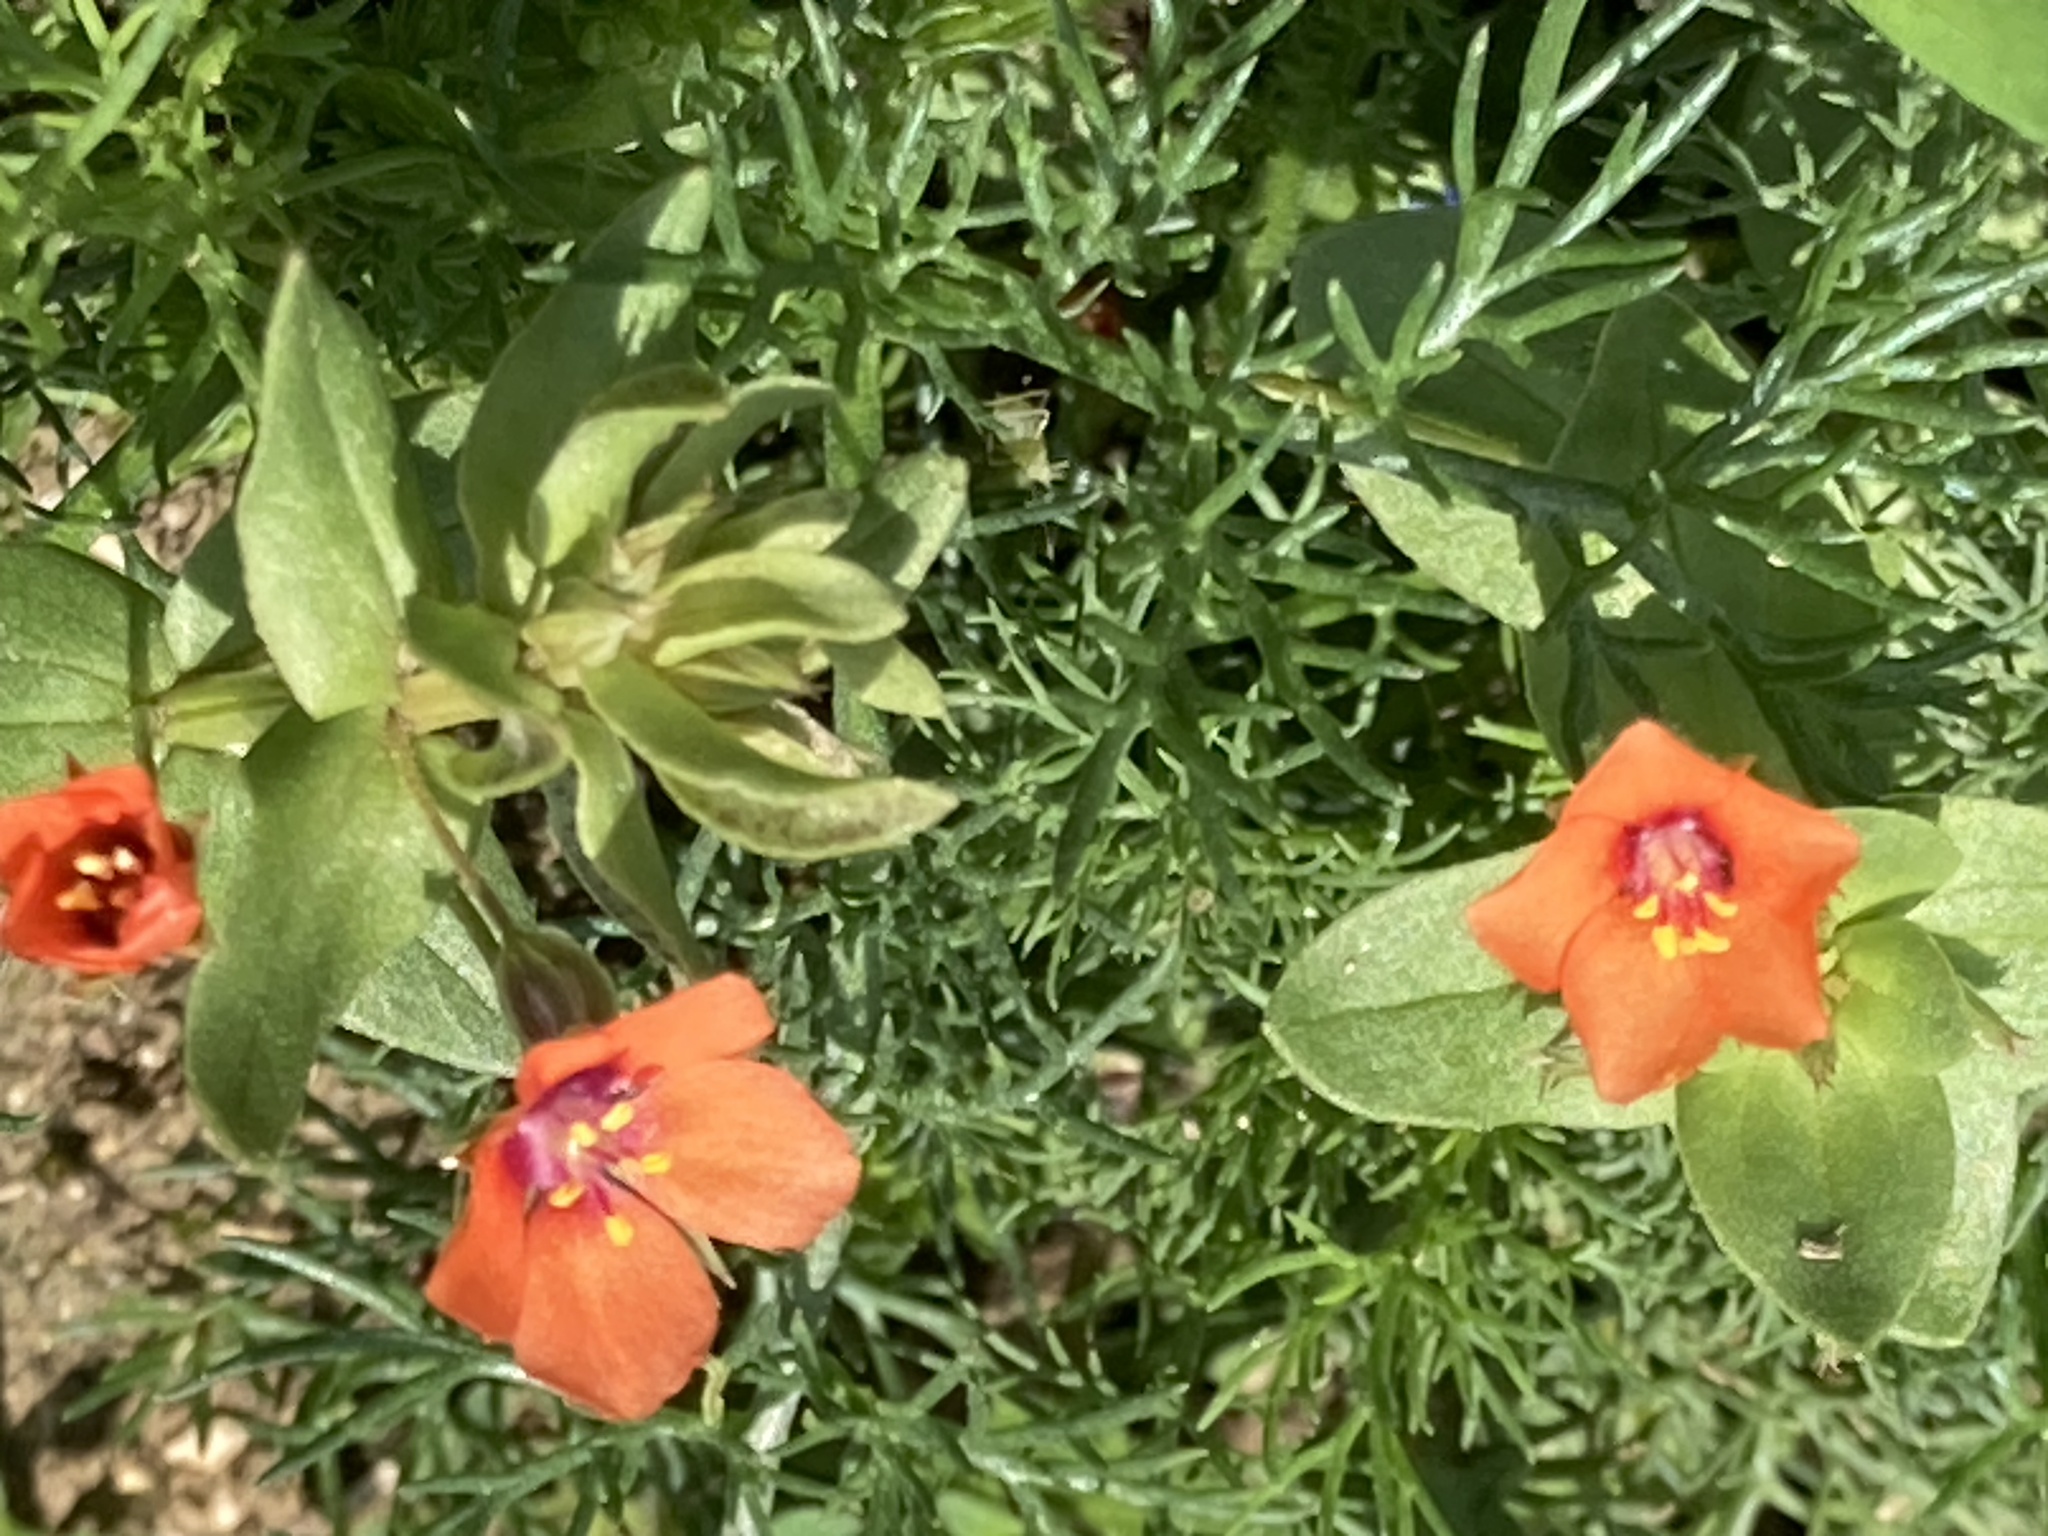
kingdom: Plantae
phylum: Tracheophyta
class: Magnoliopsida
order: Ericales
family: Primulaceae
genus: Lysimachia
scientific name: Lysimachia arvensis
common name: Scarlet pimpernel
